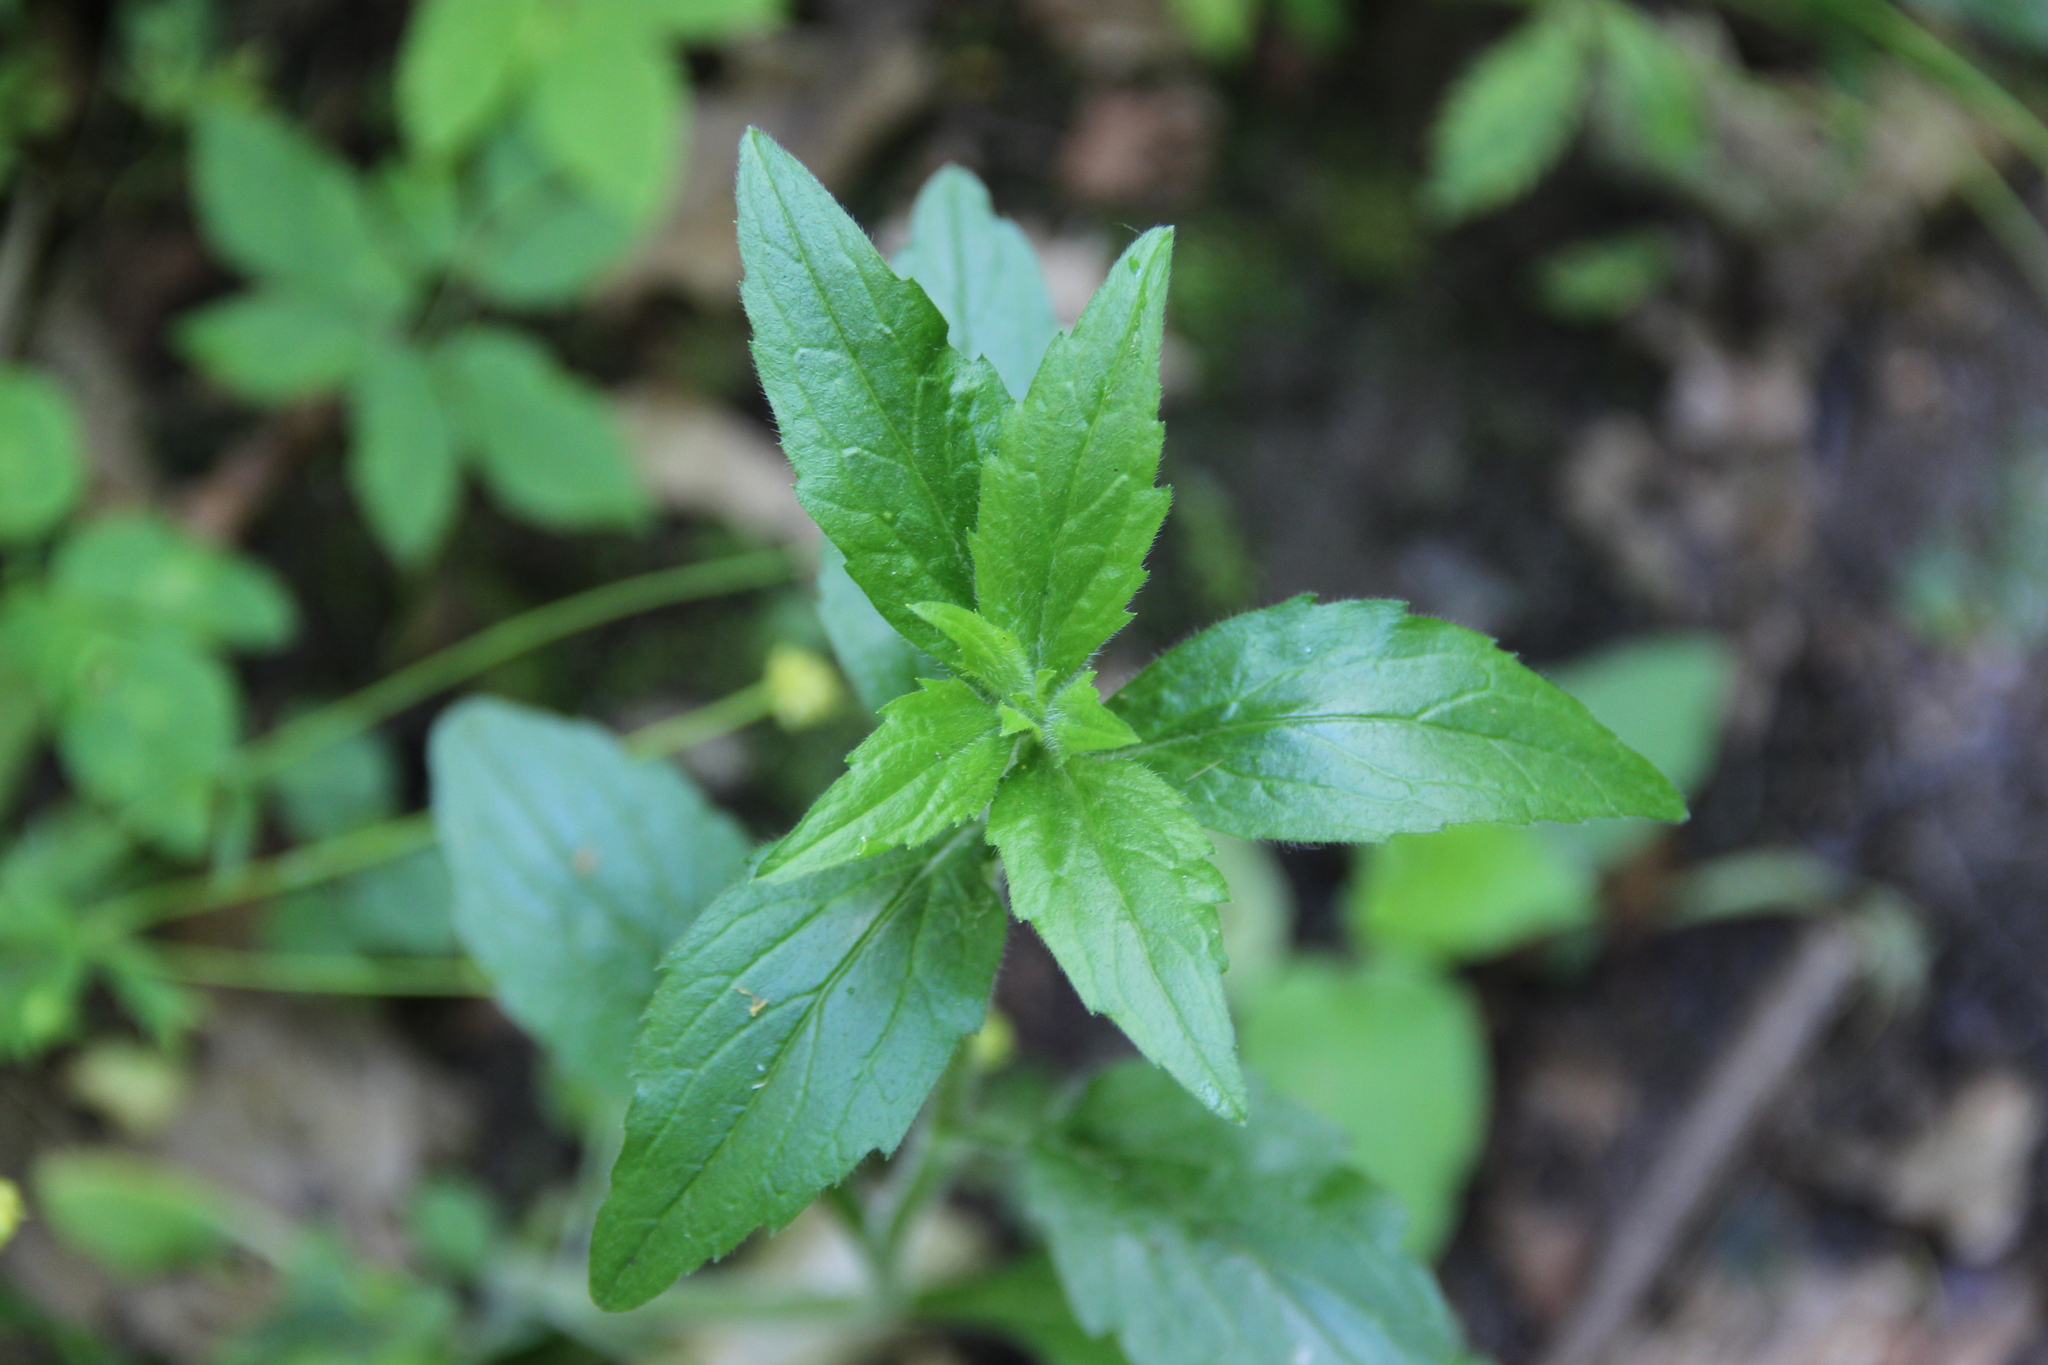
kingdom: Plantae
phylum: Tracheophyta
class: Magnoliopsida
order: Asterales
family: Asteraceae
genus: Erigeron
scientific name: Erigeron annuus
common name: Tall fleabane
